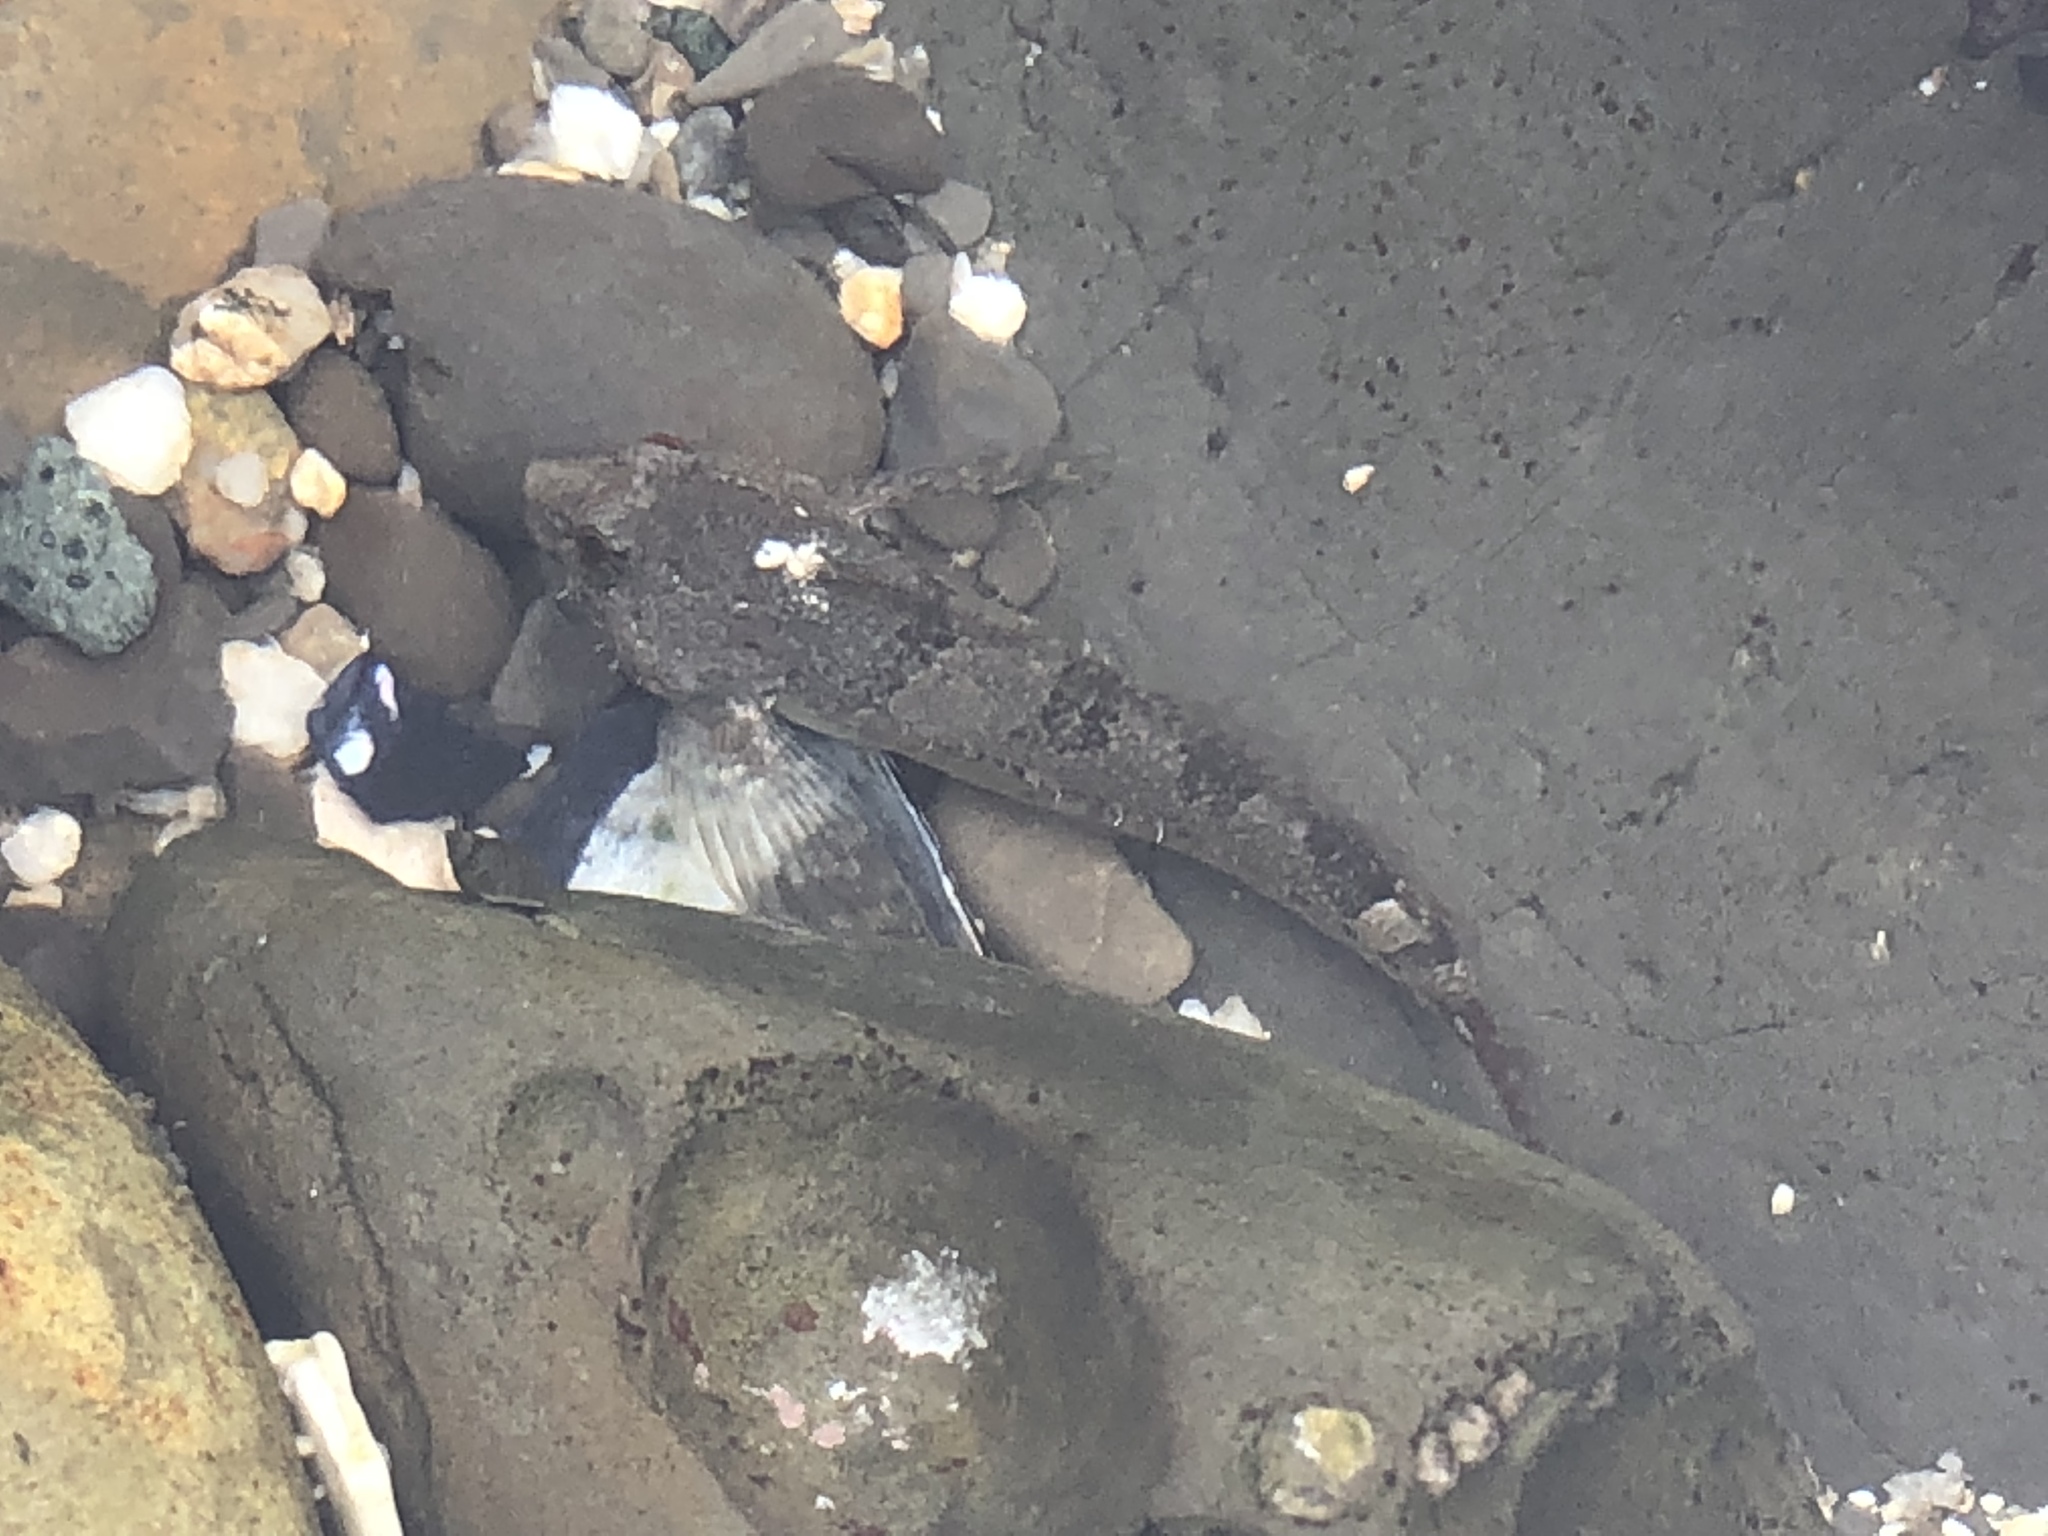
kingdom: Animalia
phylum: Chordata
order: Scorpaeniformes
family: Cottidae
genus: Oligocottus
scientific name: Oligocottus maculosus
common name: Tidepool sculpin
